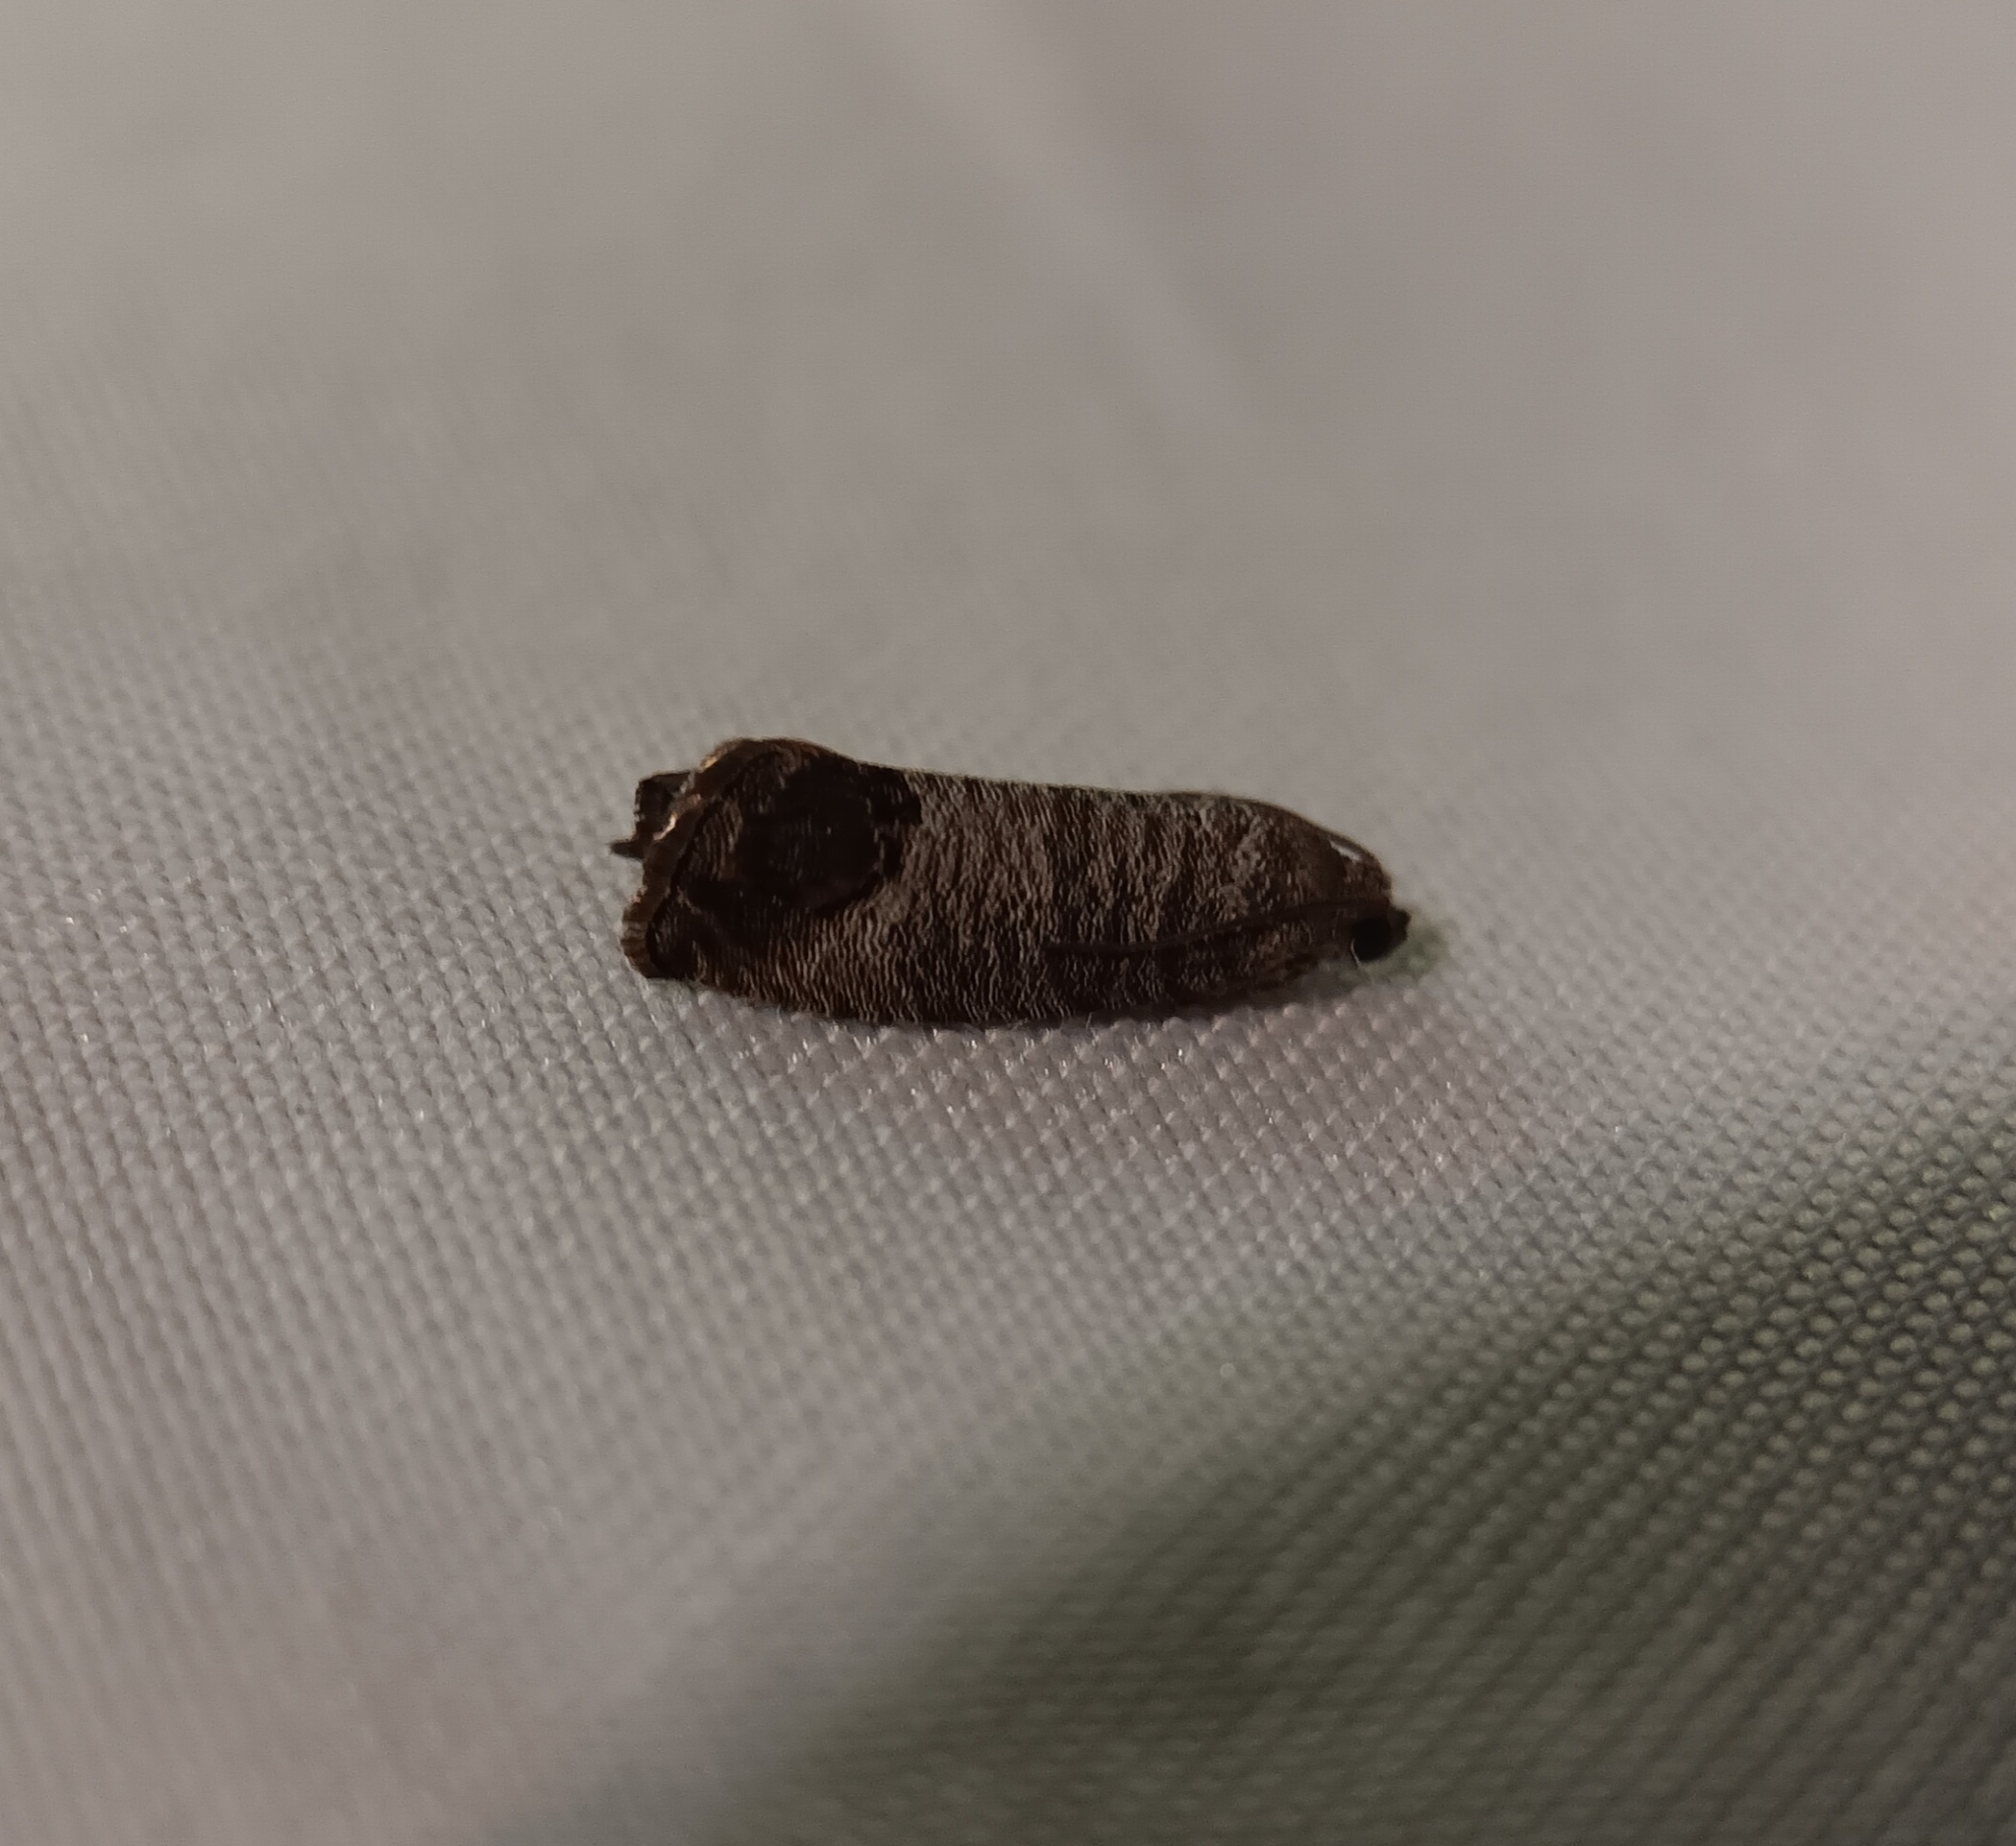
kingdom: Animalia
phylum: Arthropoda
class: Insecta
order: Lepidoptera
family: Tortricidae
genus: Cydia
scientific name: Cydia pomonella
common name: Codling moth
